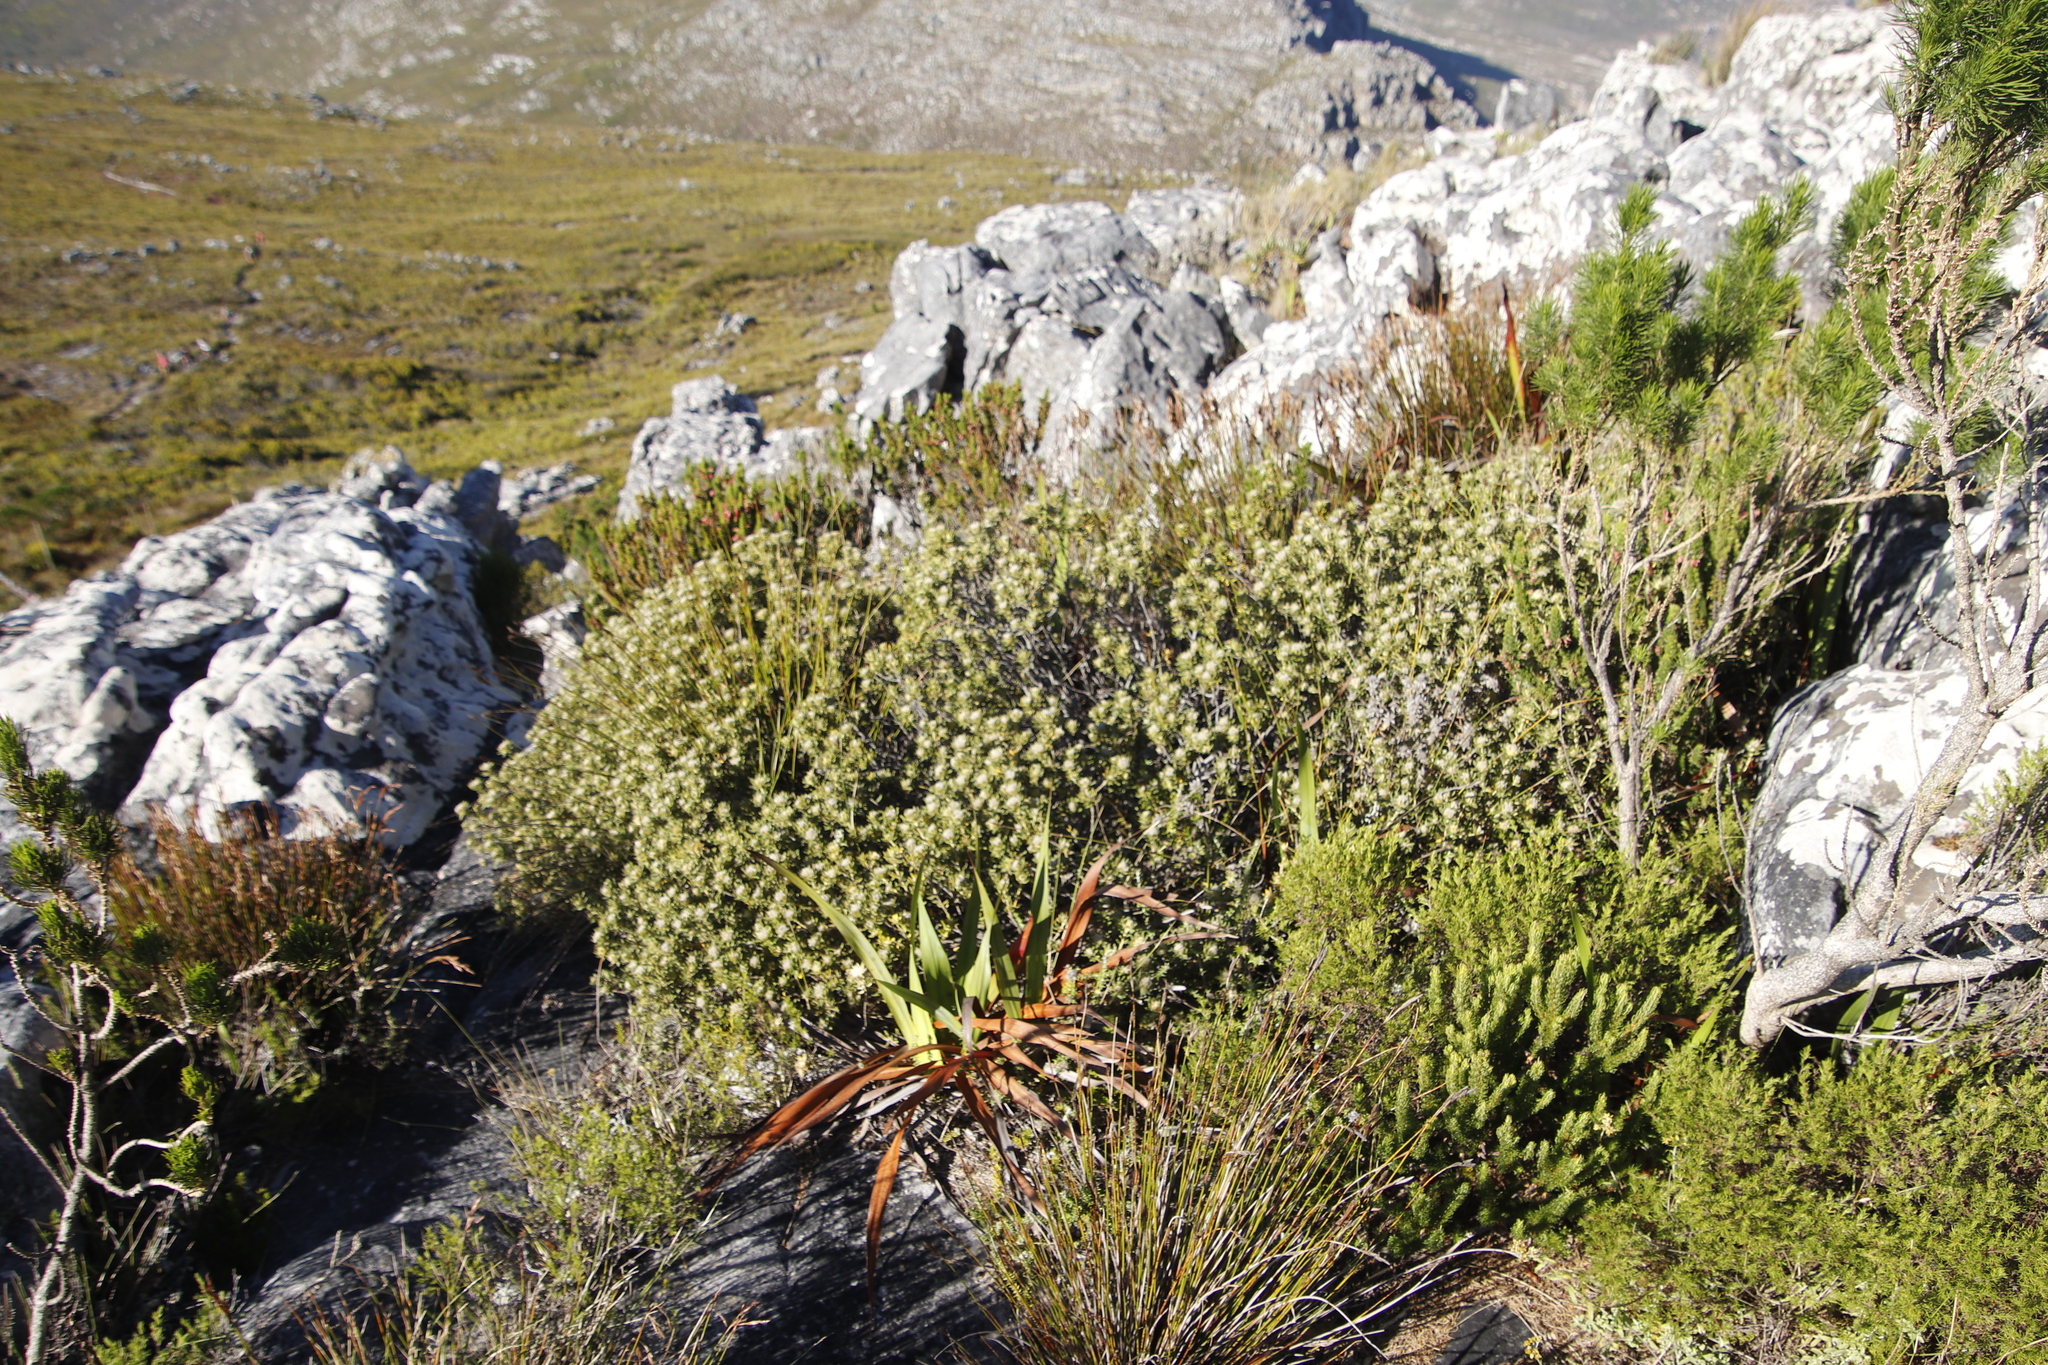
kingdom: Plantae
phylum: Tracheophyta
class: Magnoliopsida
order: Rosales
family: Rhamnaceae
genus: Phylica
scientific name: Phylica dioica
